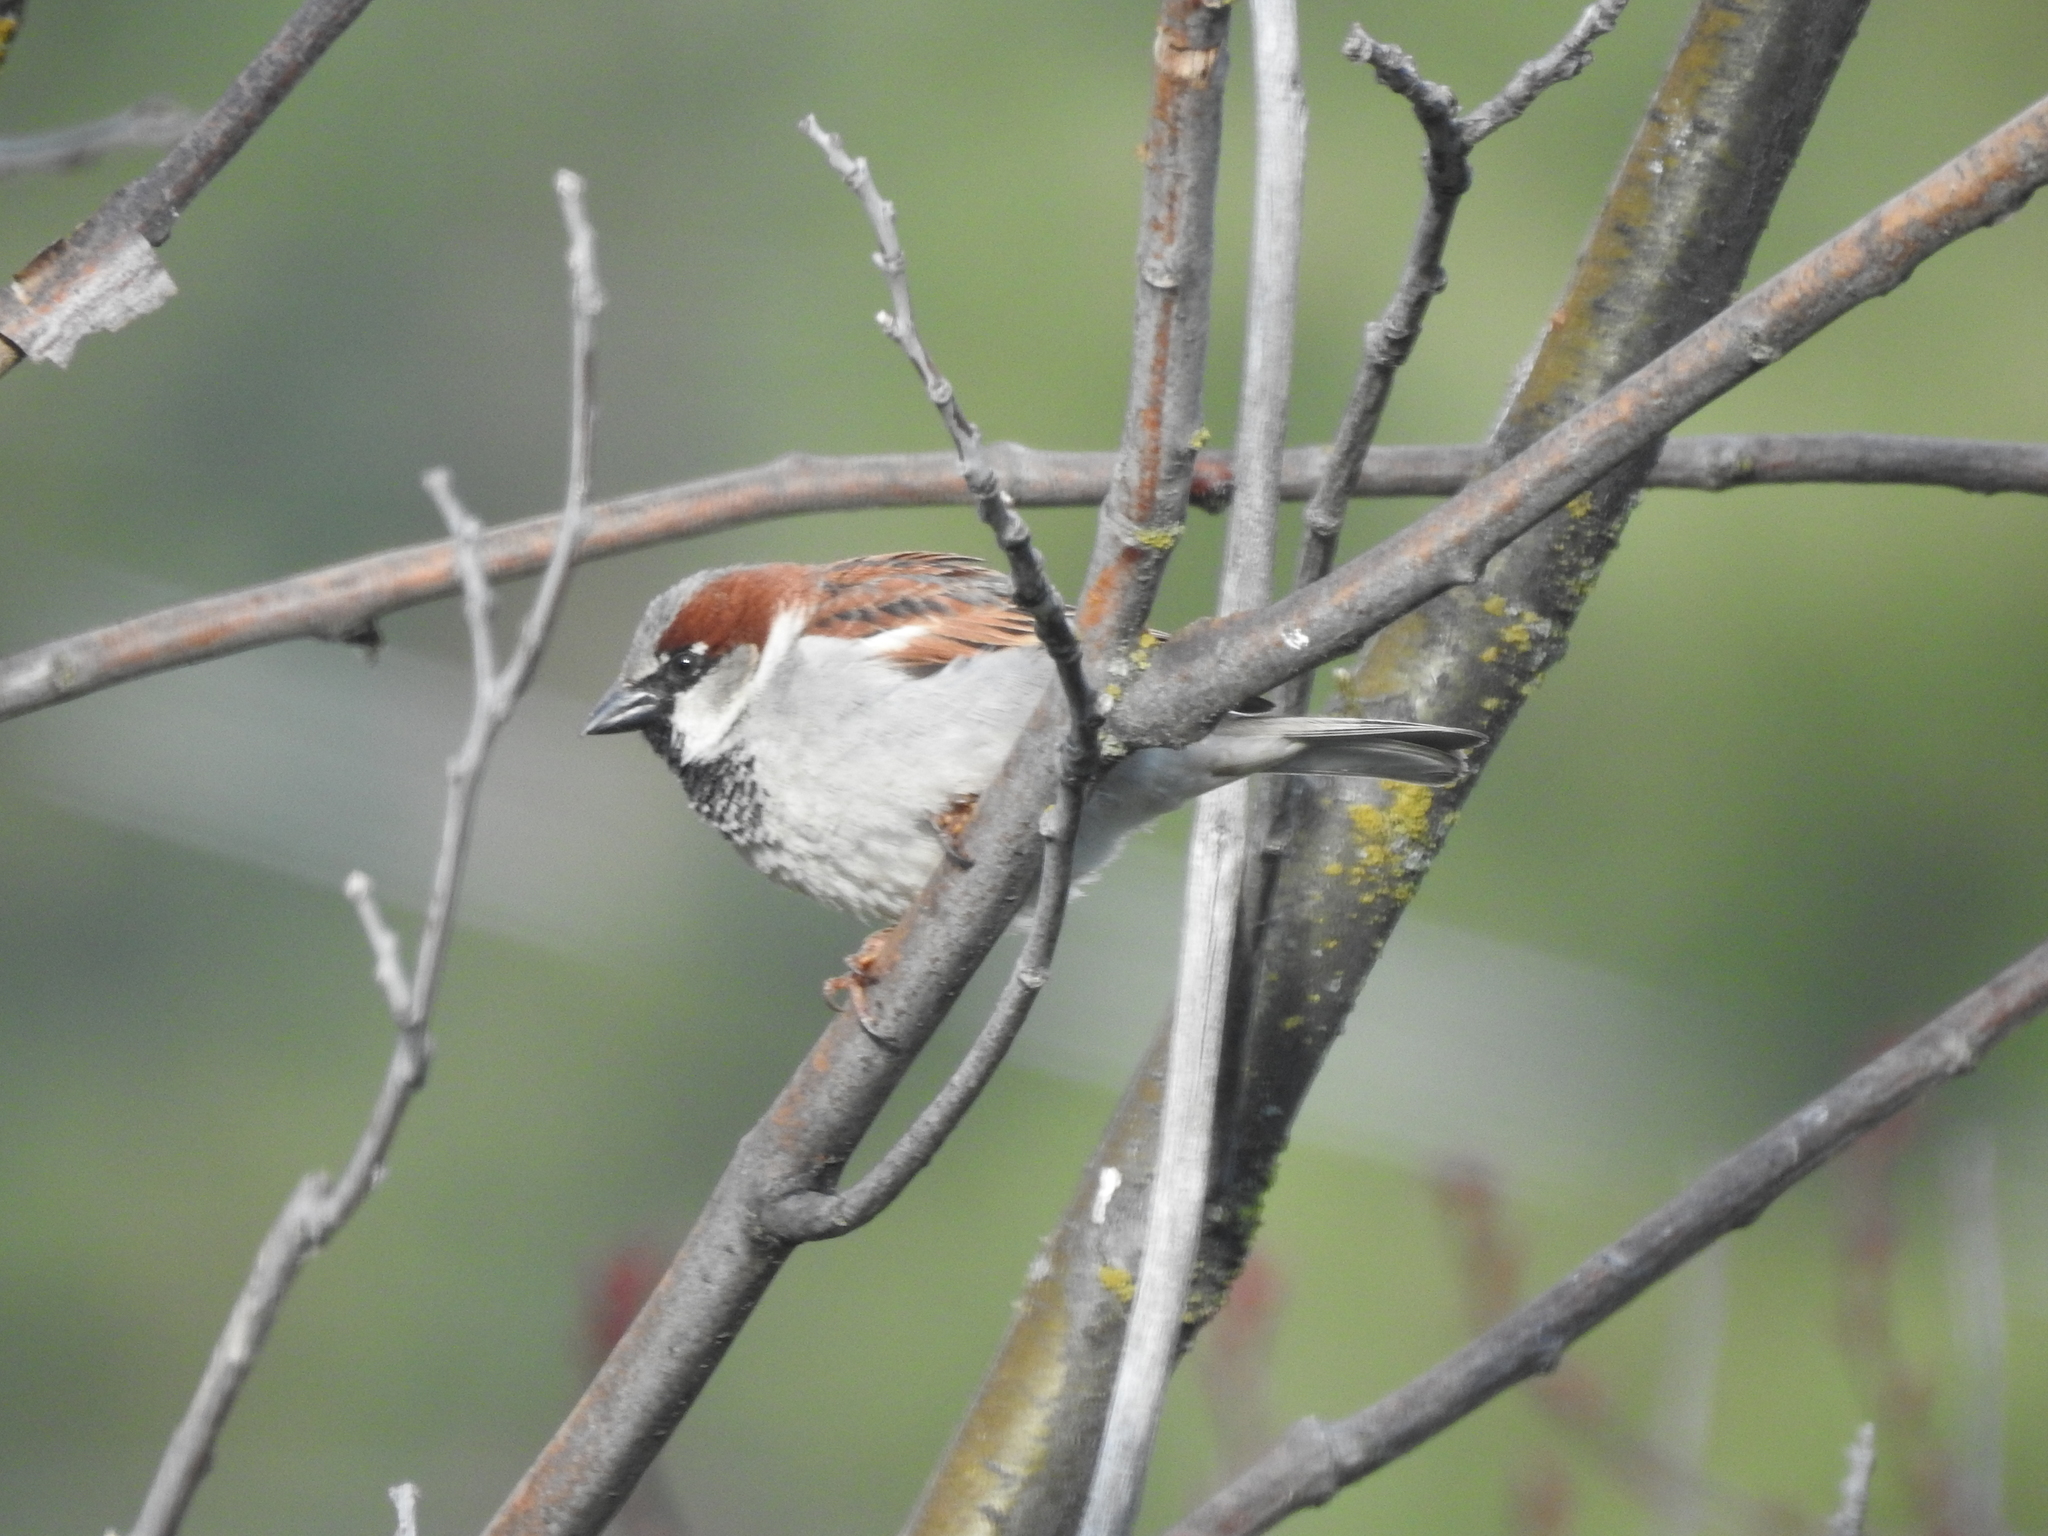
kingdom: Animalia
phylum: Chordata
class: Aves
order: Passeriformes
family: Passeridae
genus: Passer
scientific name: Passer domesticus
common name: House sparrow
